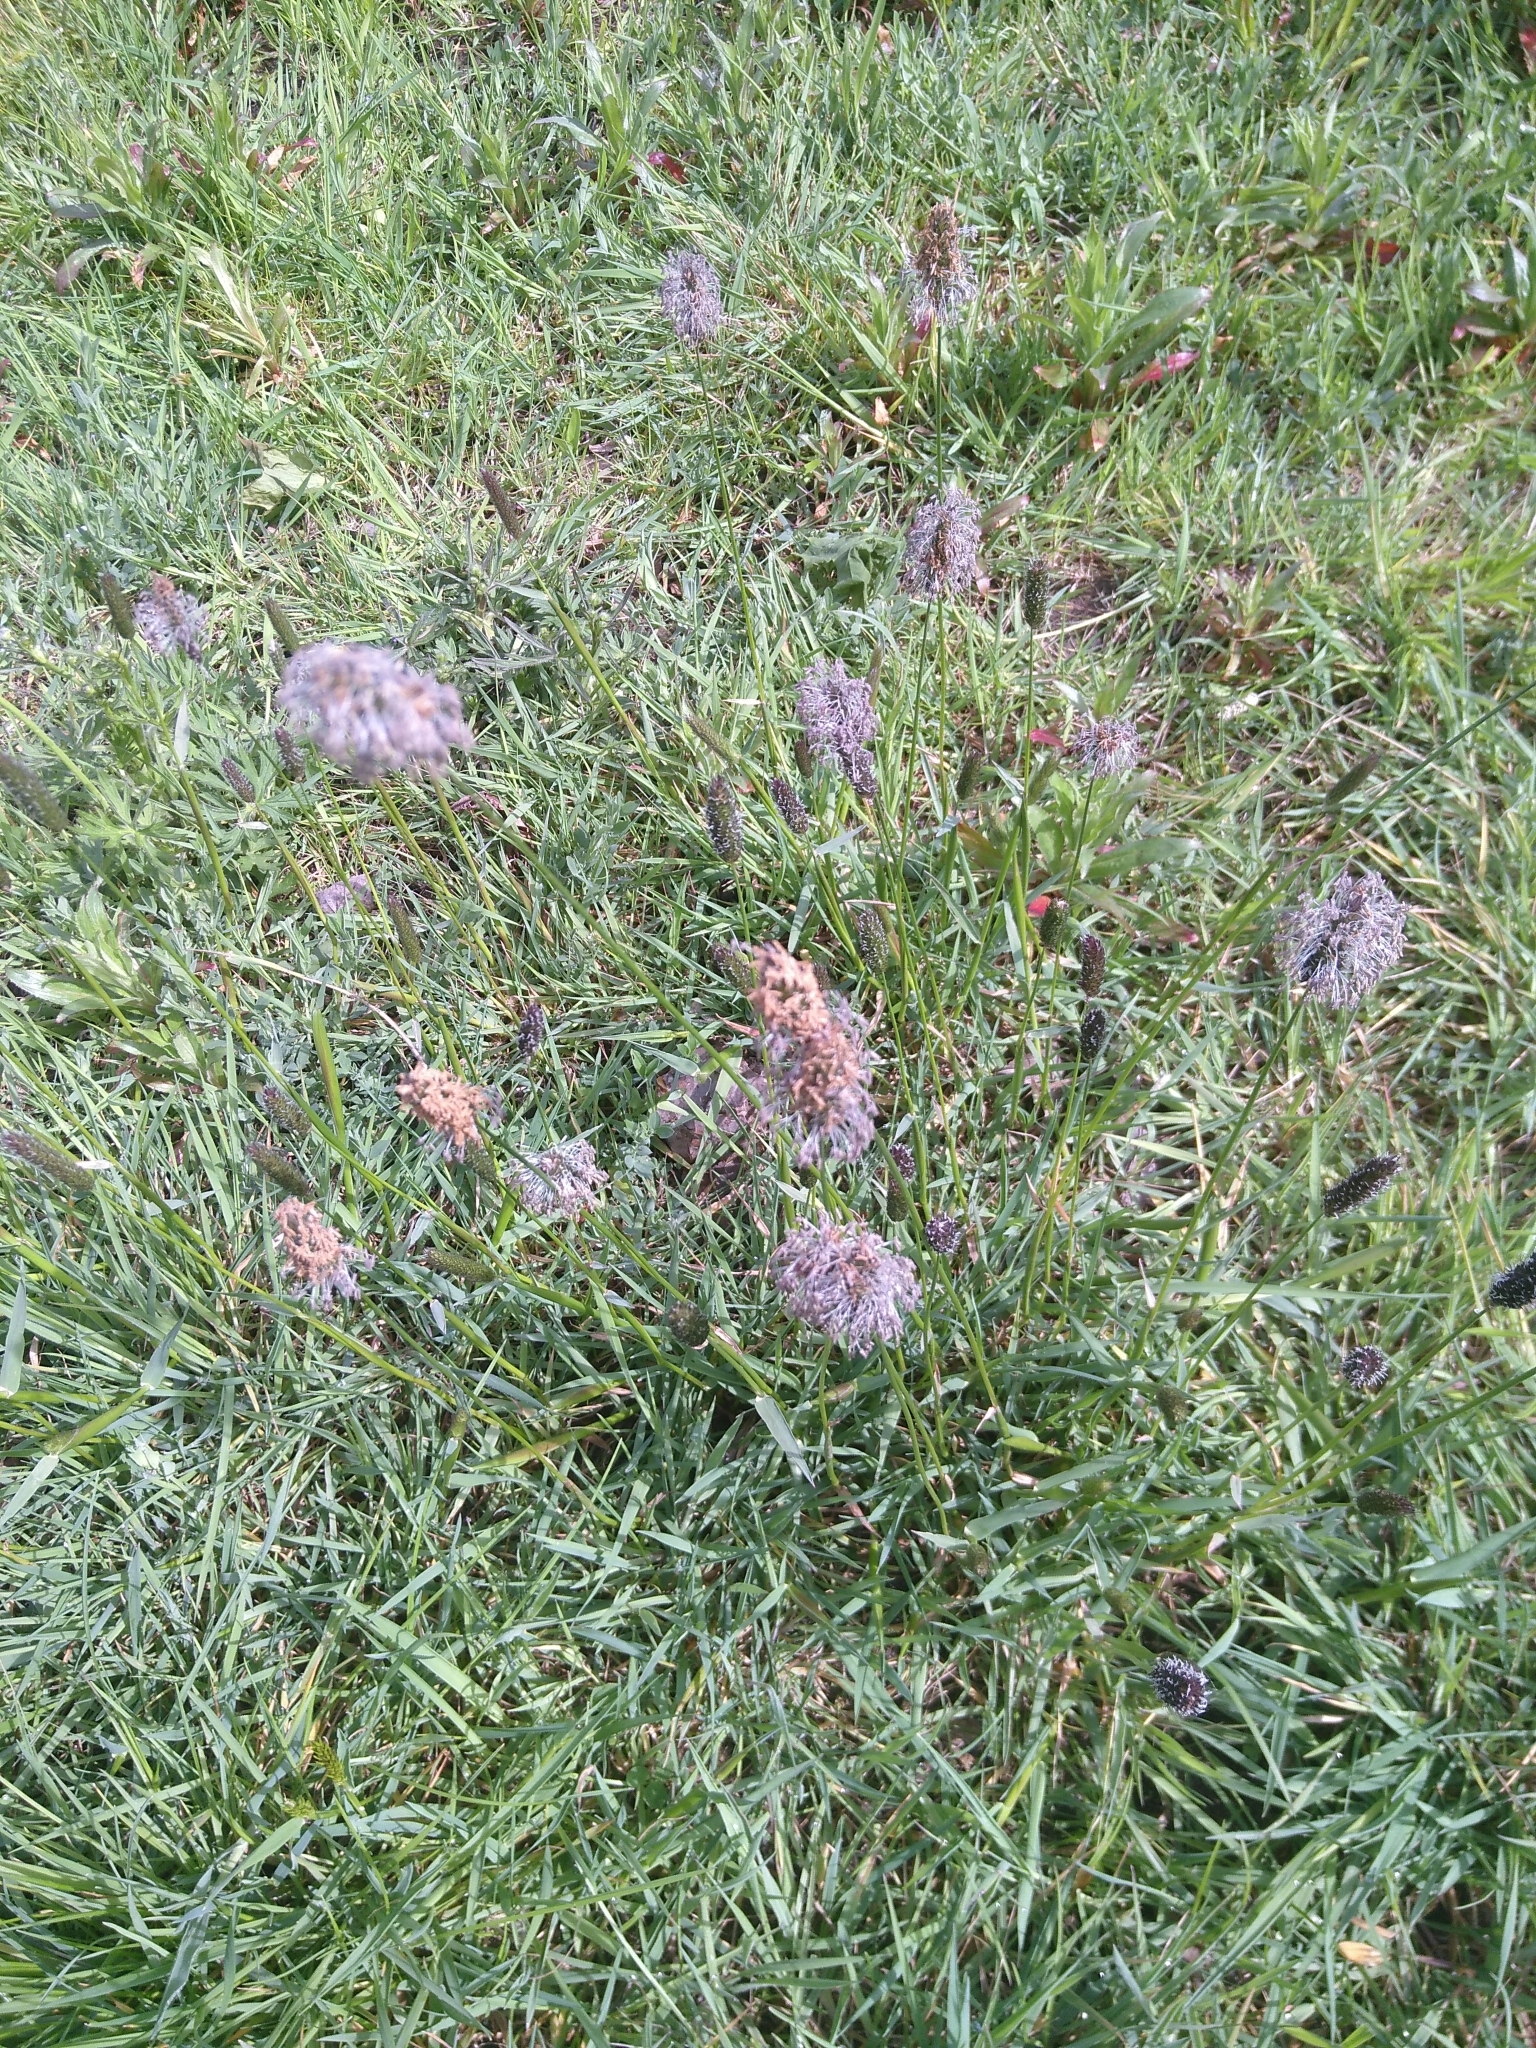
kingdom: Plantae
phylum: Tracheophyta
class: Liliopsida
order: Poales
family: Poaceae
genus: Alopecurus
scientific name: Alopecurus pratensis
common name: Meadow foxtail
